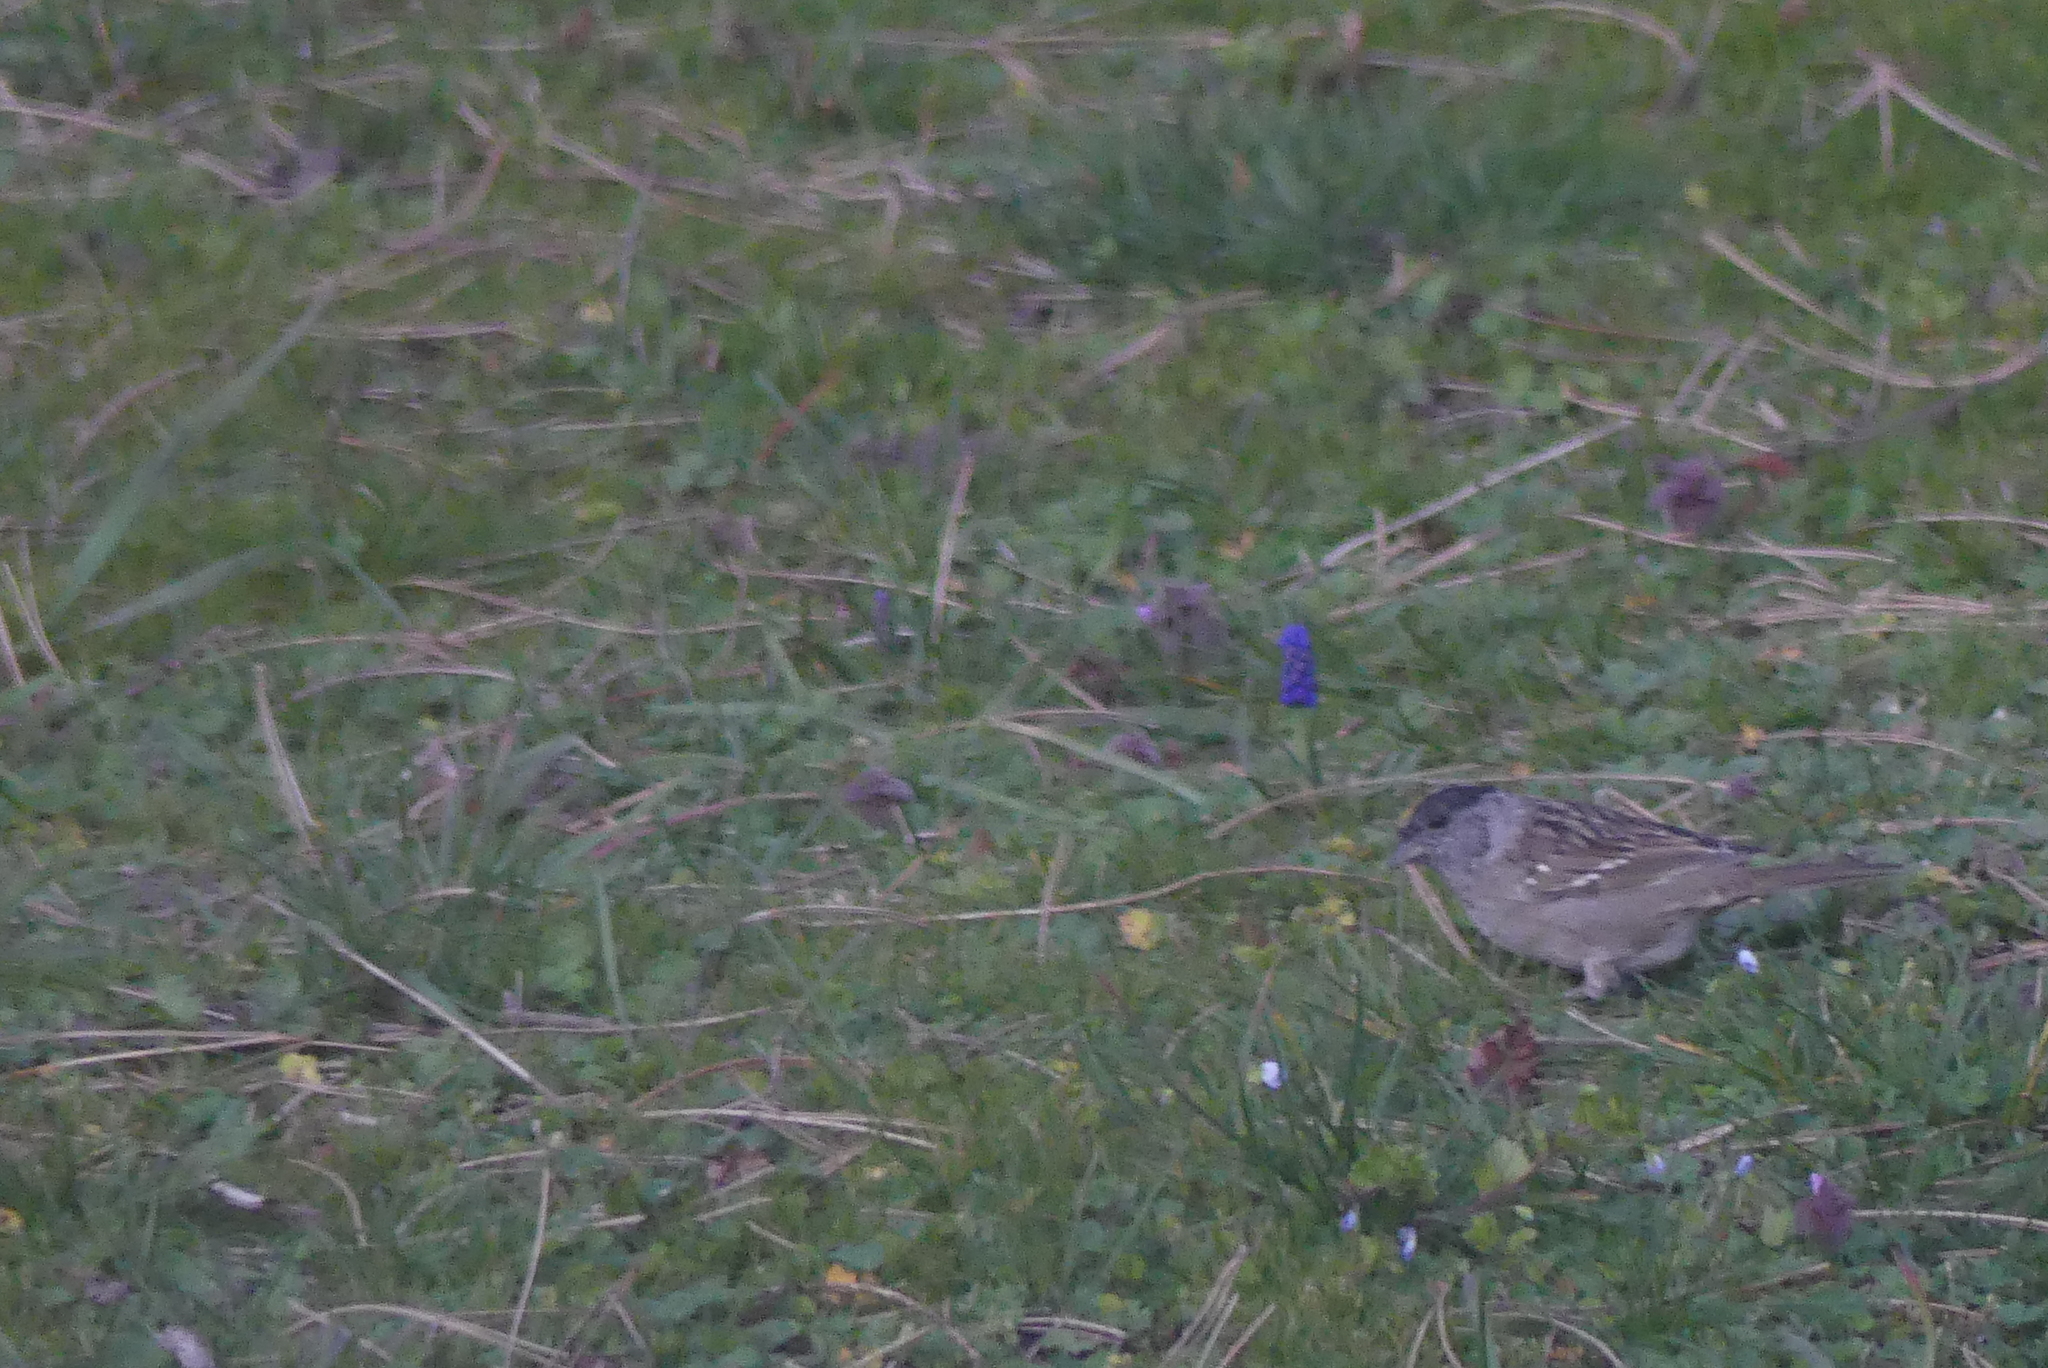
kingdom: Animalia
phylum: Chordata
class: Aves
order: Passeriformes
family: Passerellidae
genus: Zonotrichia
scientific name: Zonotrichia atricapilla
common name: Golden-crowned sparrow
